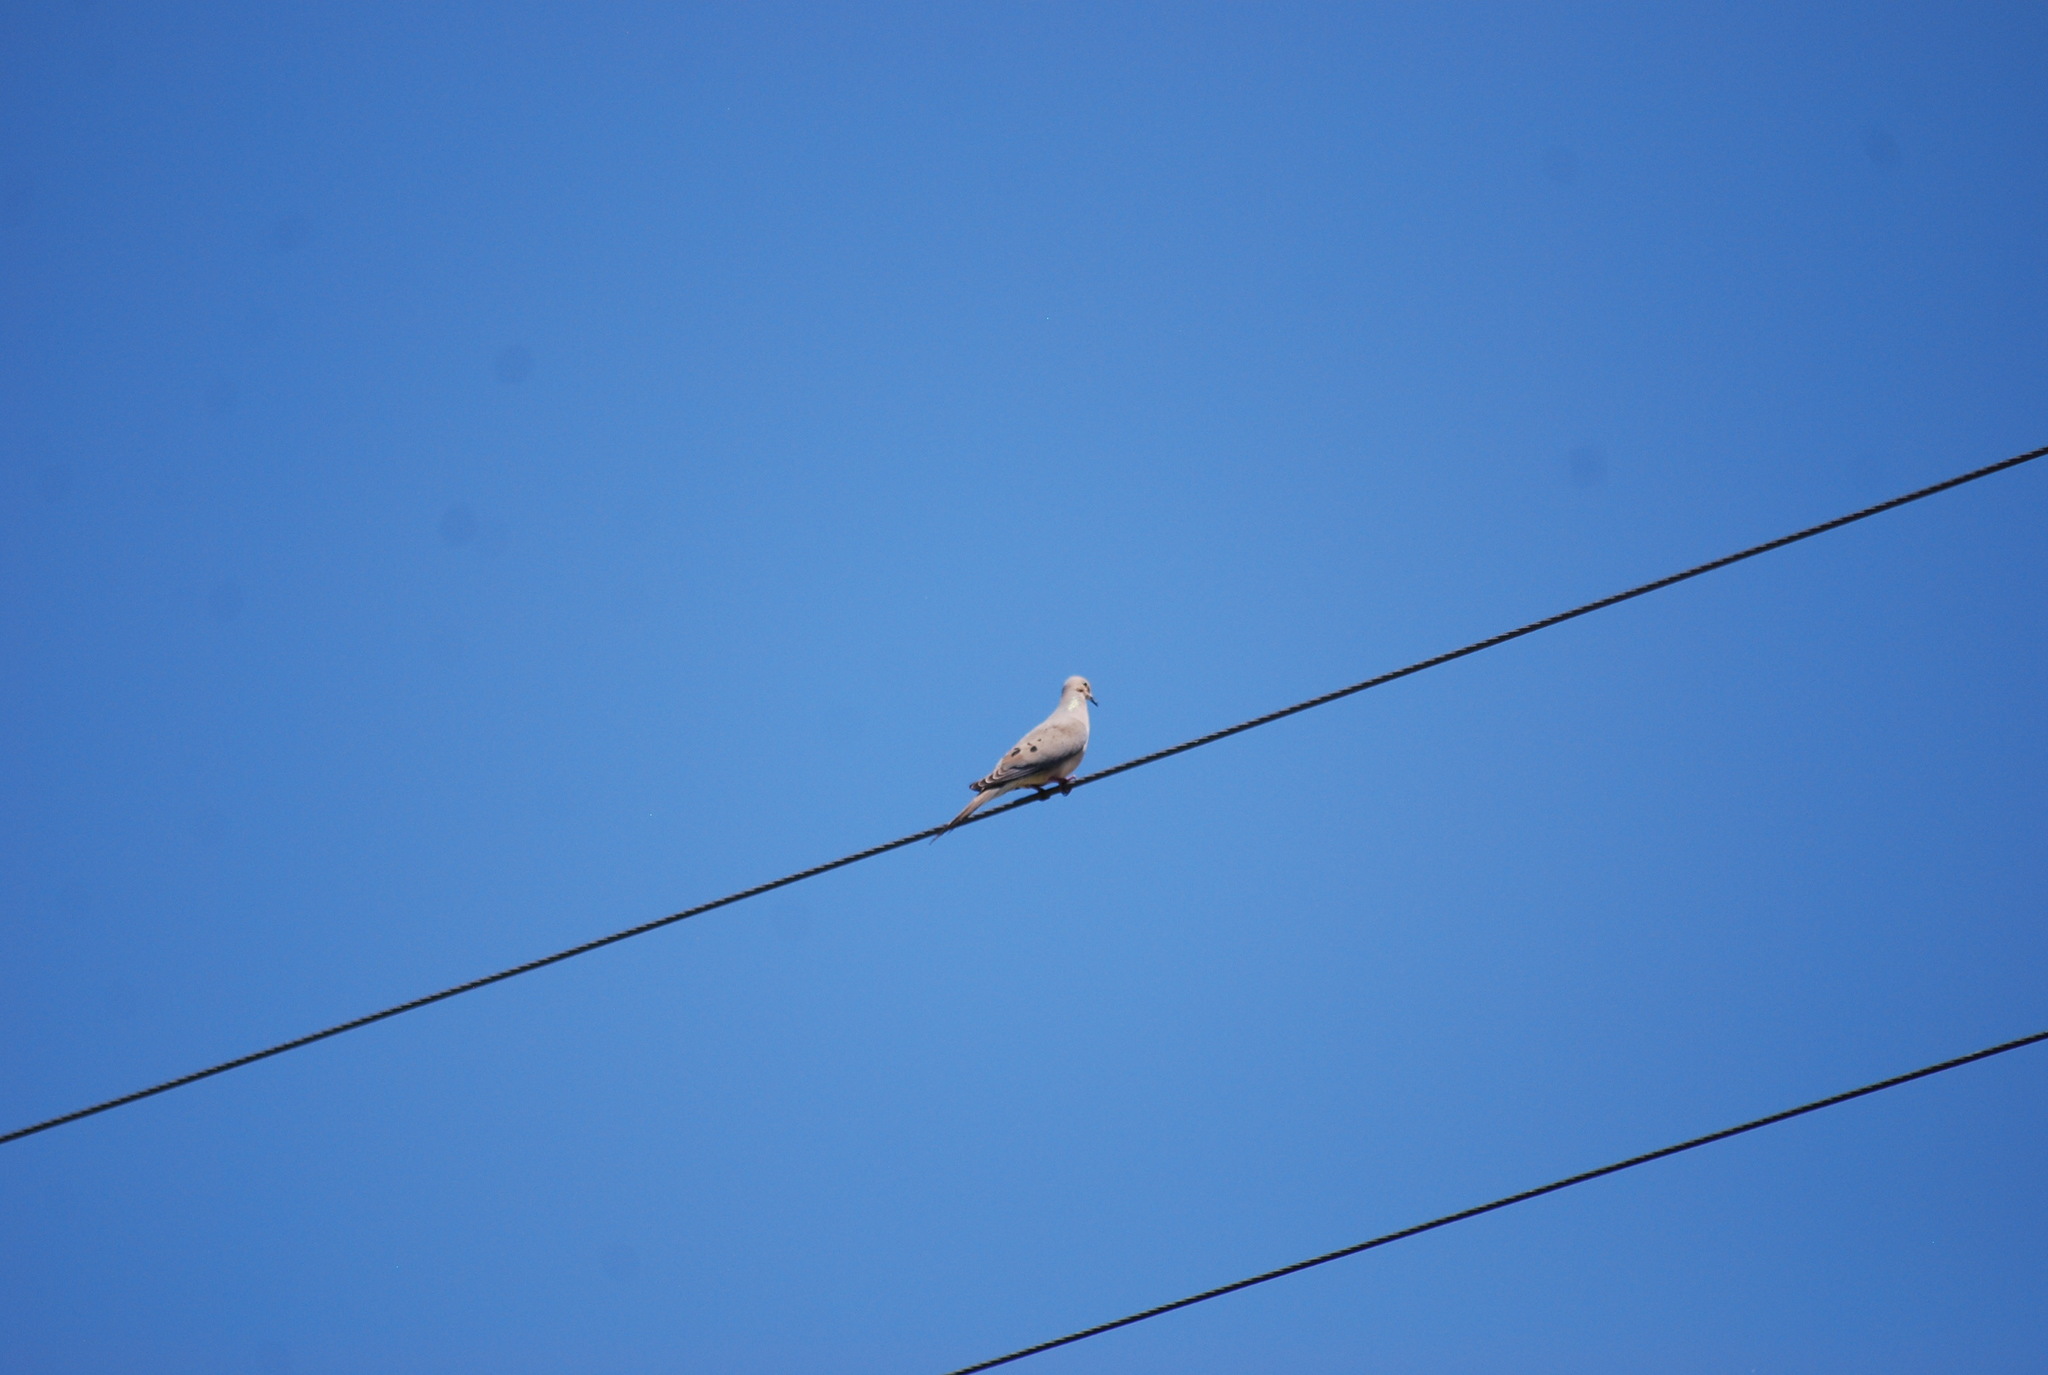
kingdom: Animalia
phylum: Chordata
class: Aves
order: Columbiformes
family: Columbidae
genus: Zenaida
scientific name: Zenaida macroura
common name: Mourning dove
